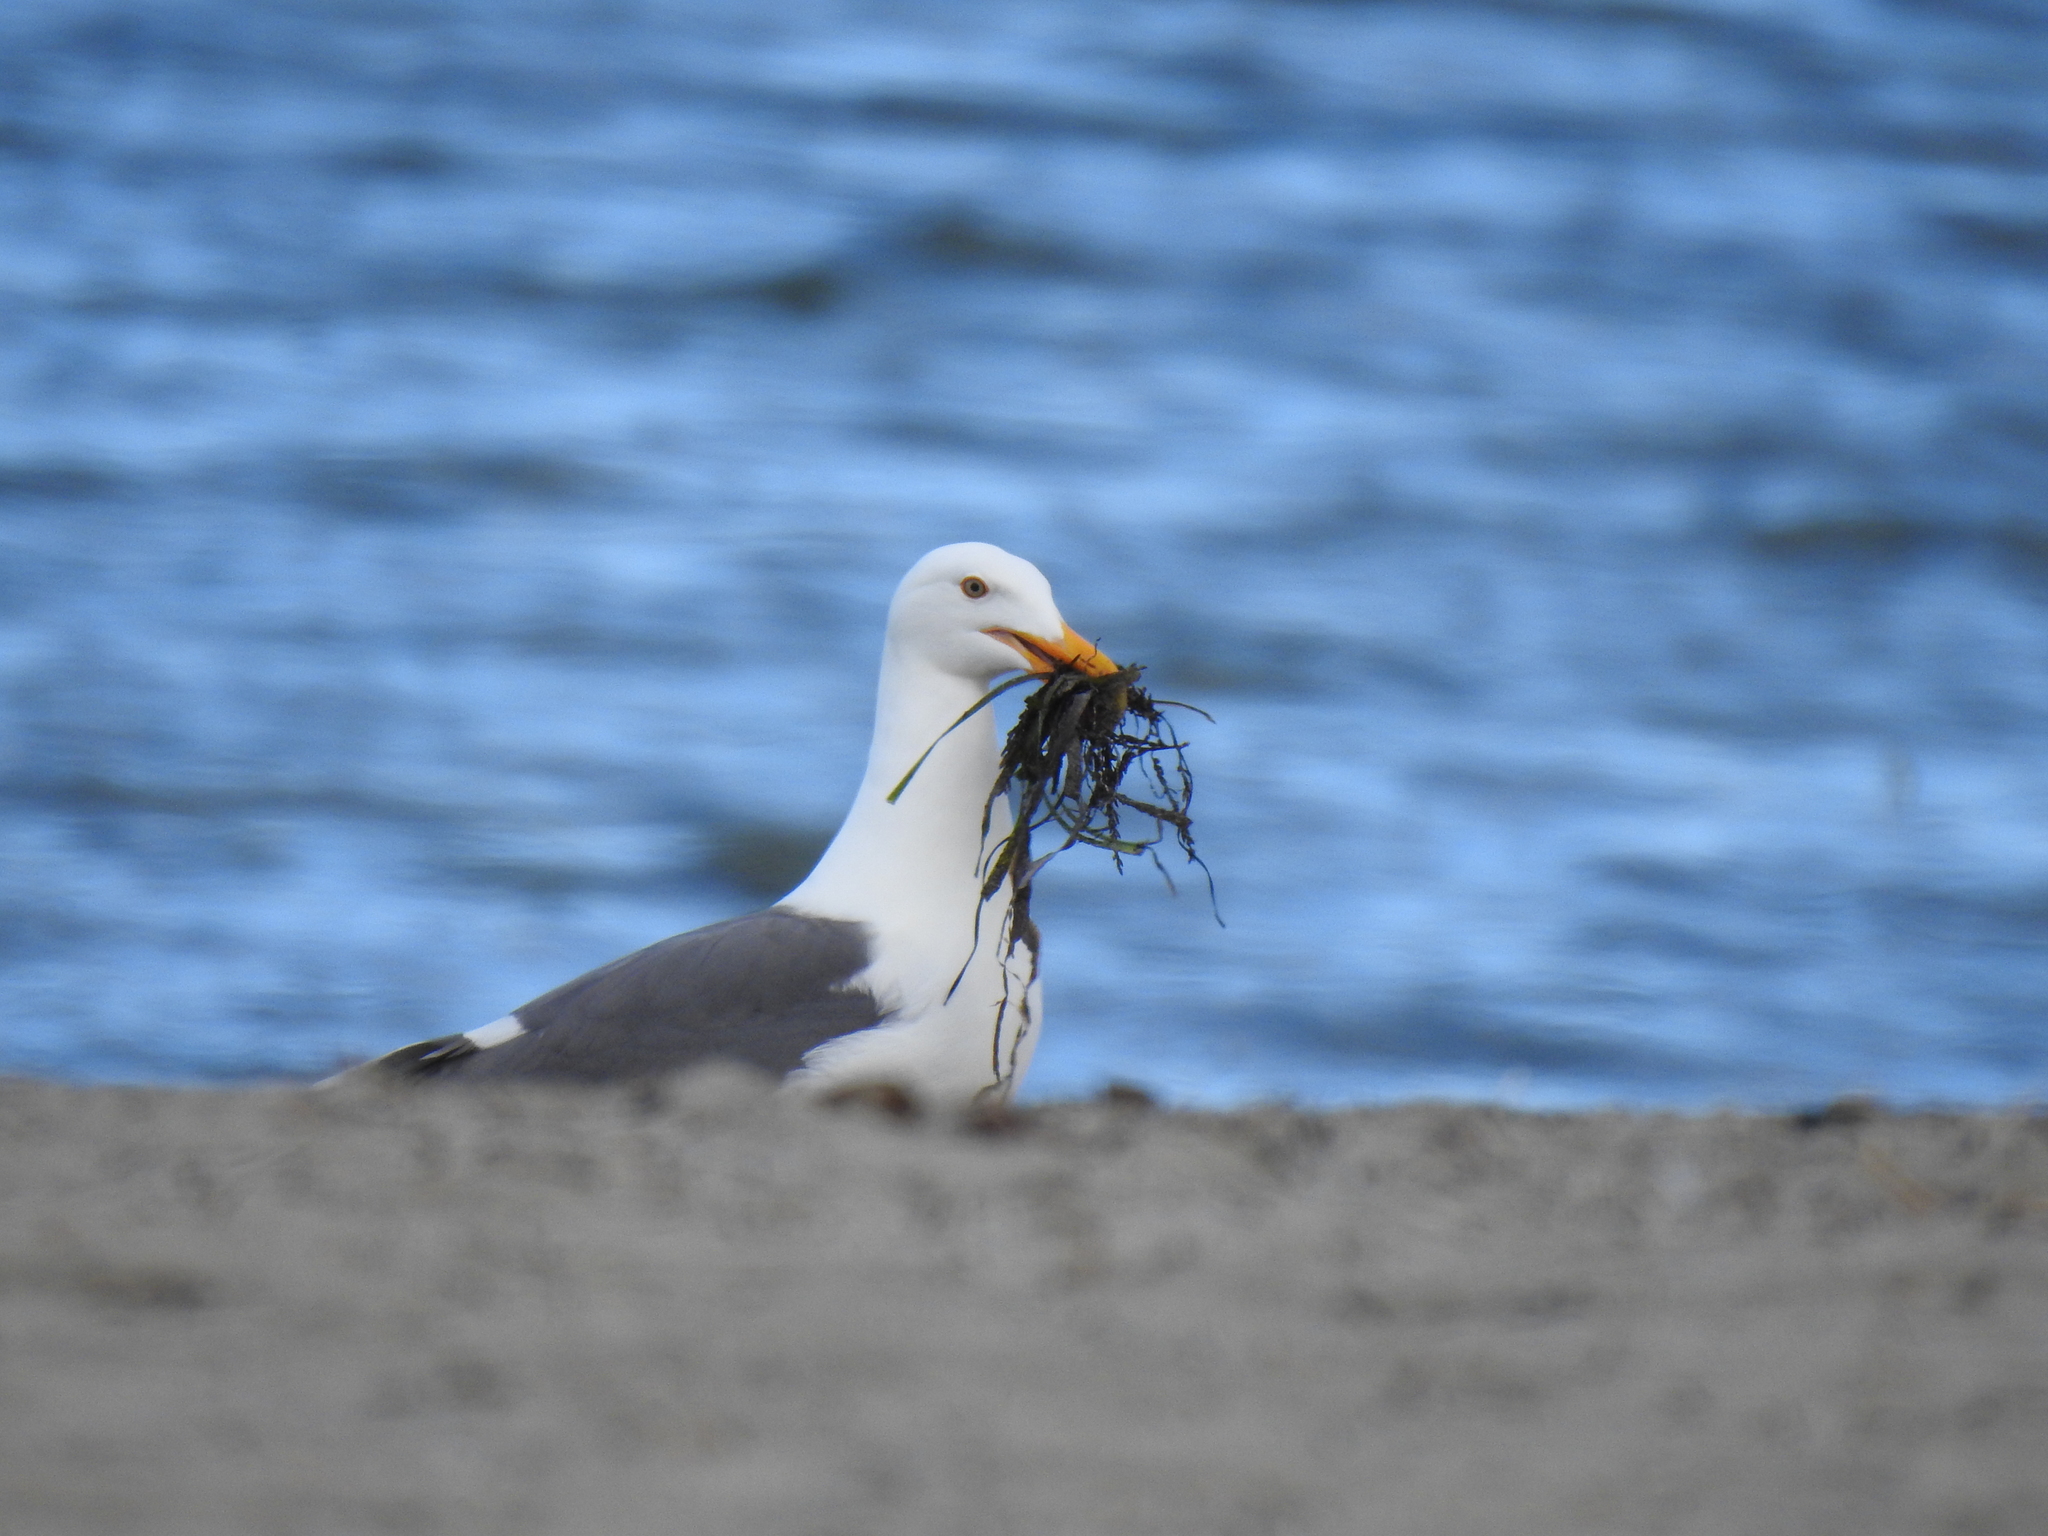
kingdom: Animalia
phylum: Chordata
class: Aves
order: Charadriiformes
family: Laridae
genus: Larus
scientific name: Larus occidentalis
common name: Western gull
